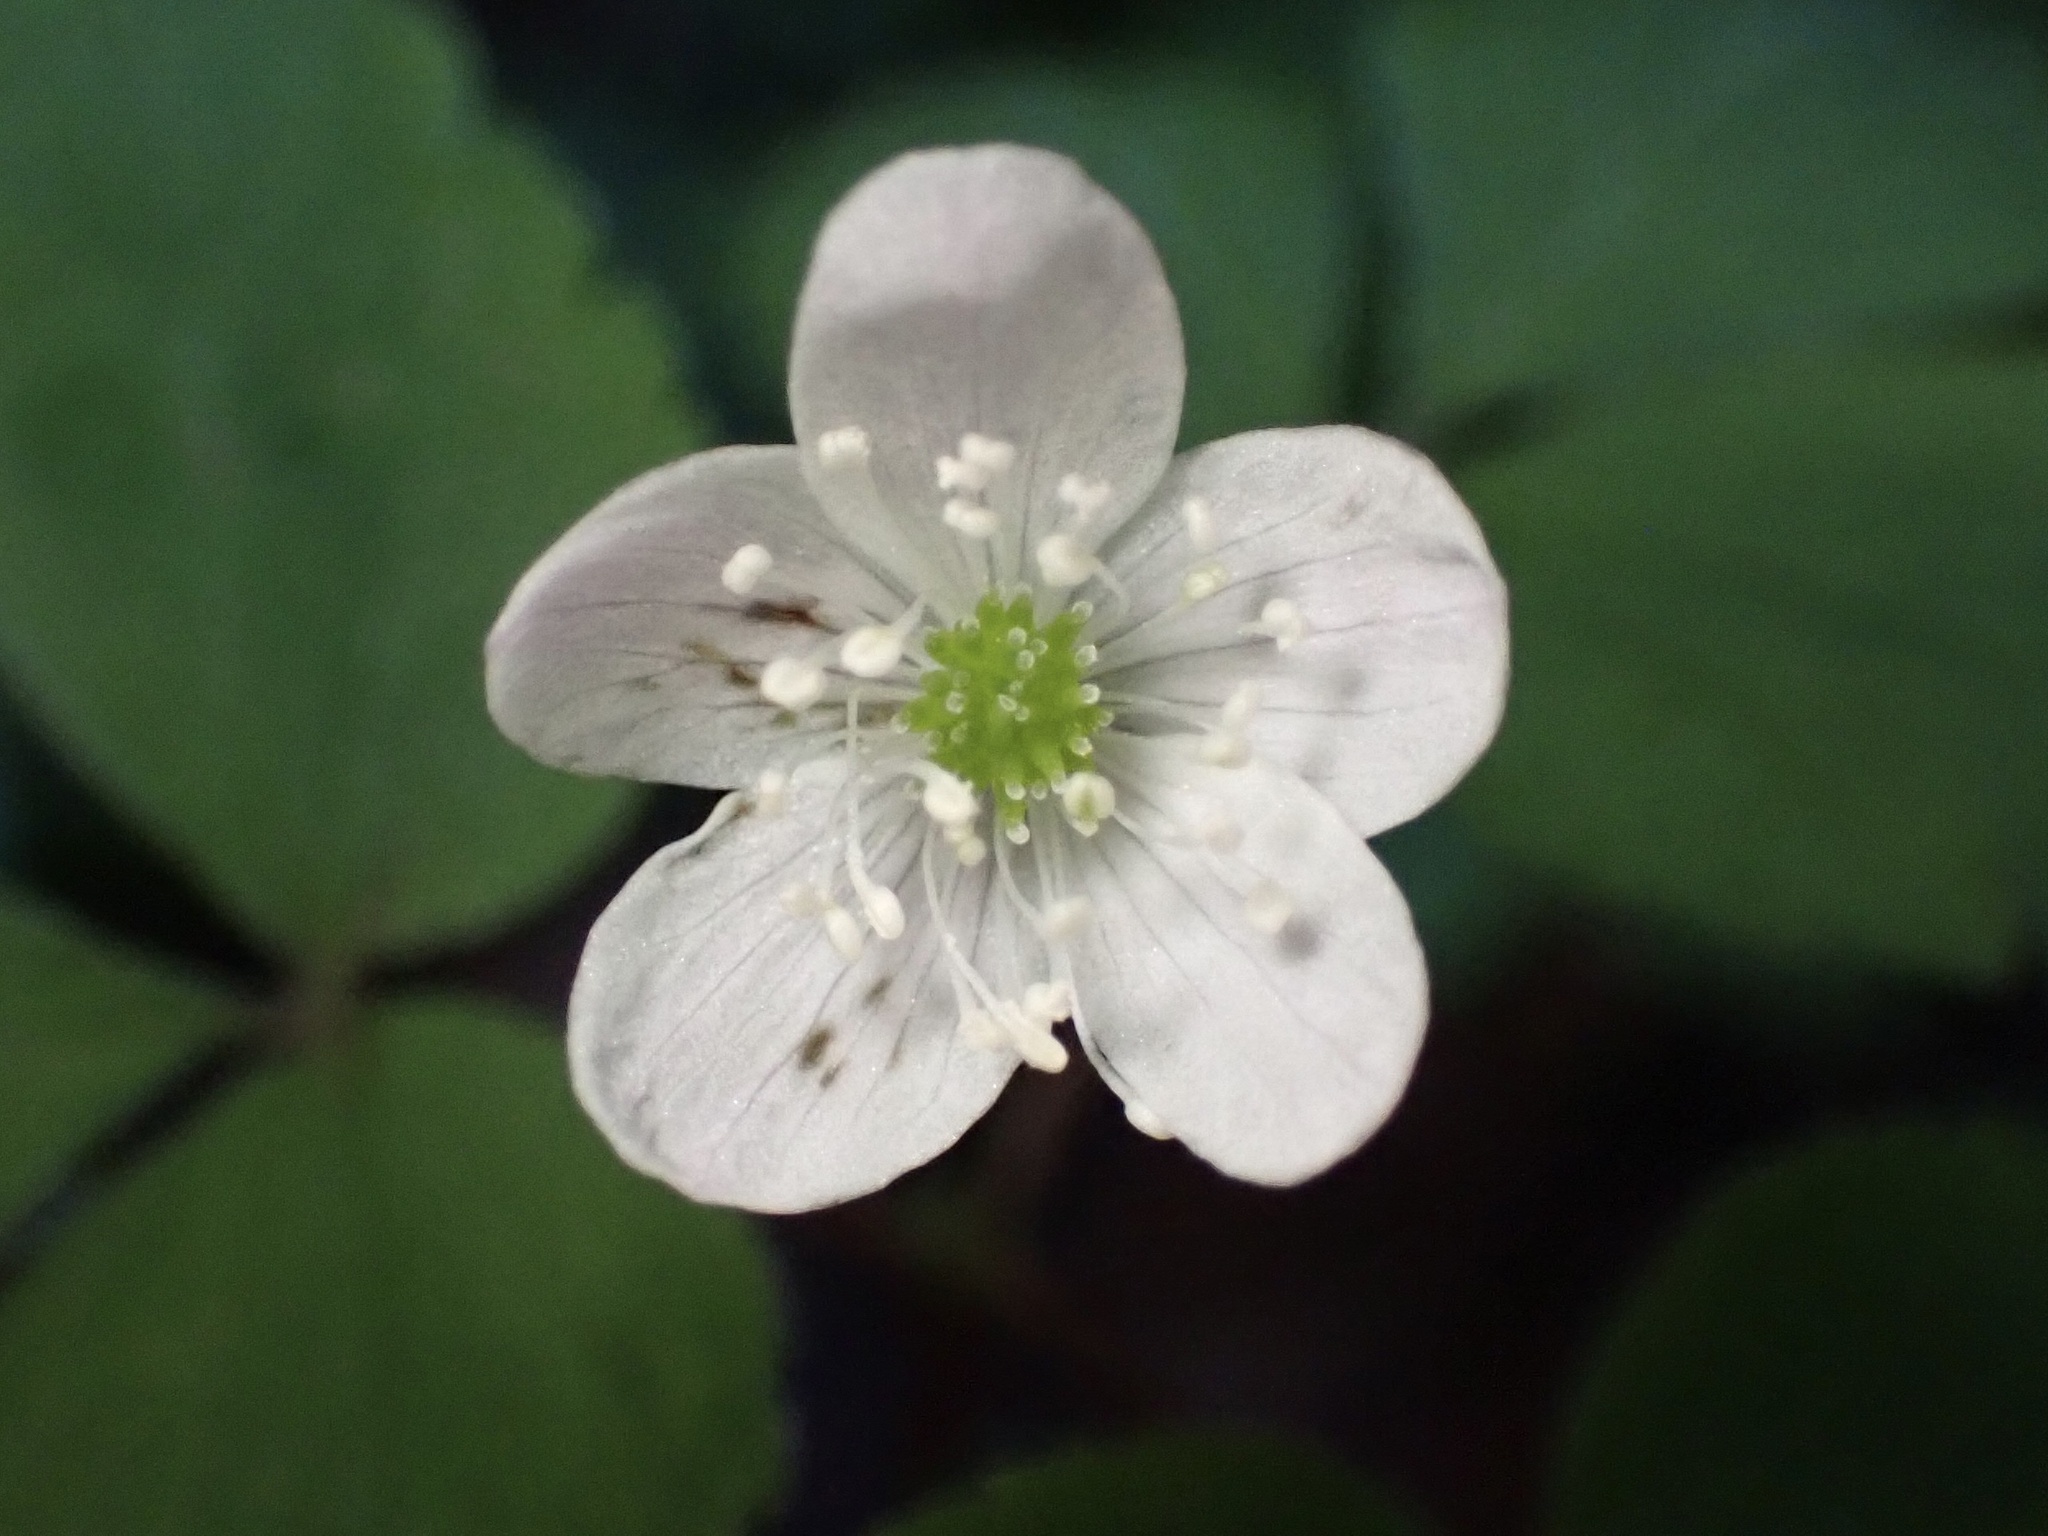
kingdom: Plantae
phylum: Tracheophyta
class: Magnoliopsida
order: Ranunculales
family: Ranunculaceae
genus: Anemone
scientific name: Anemone
